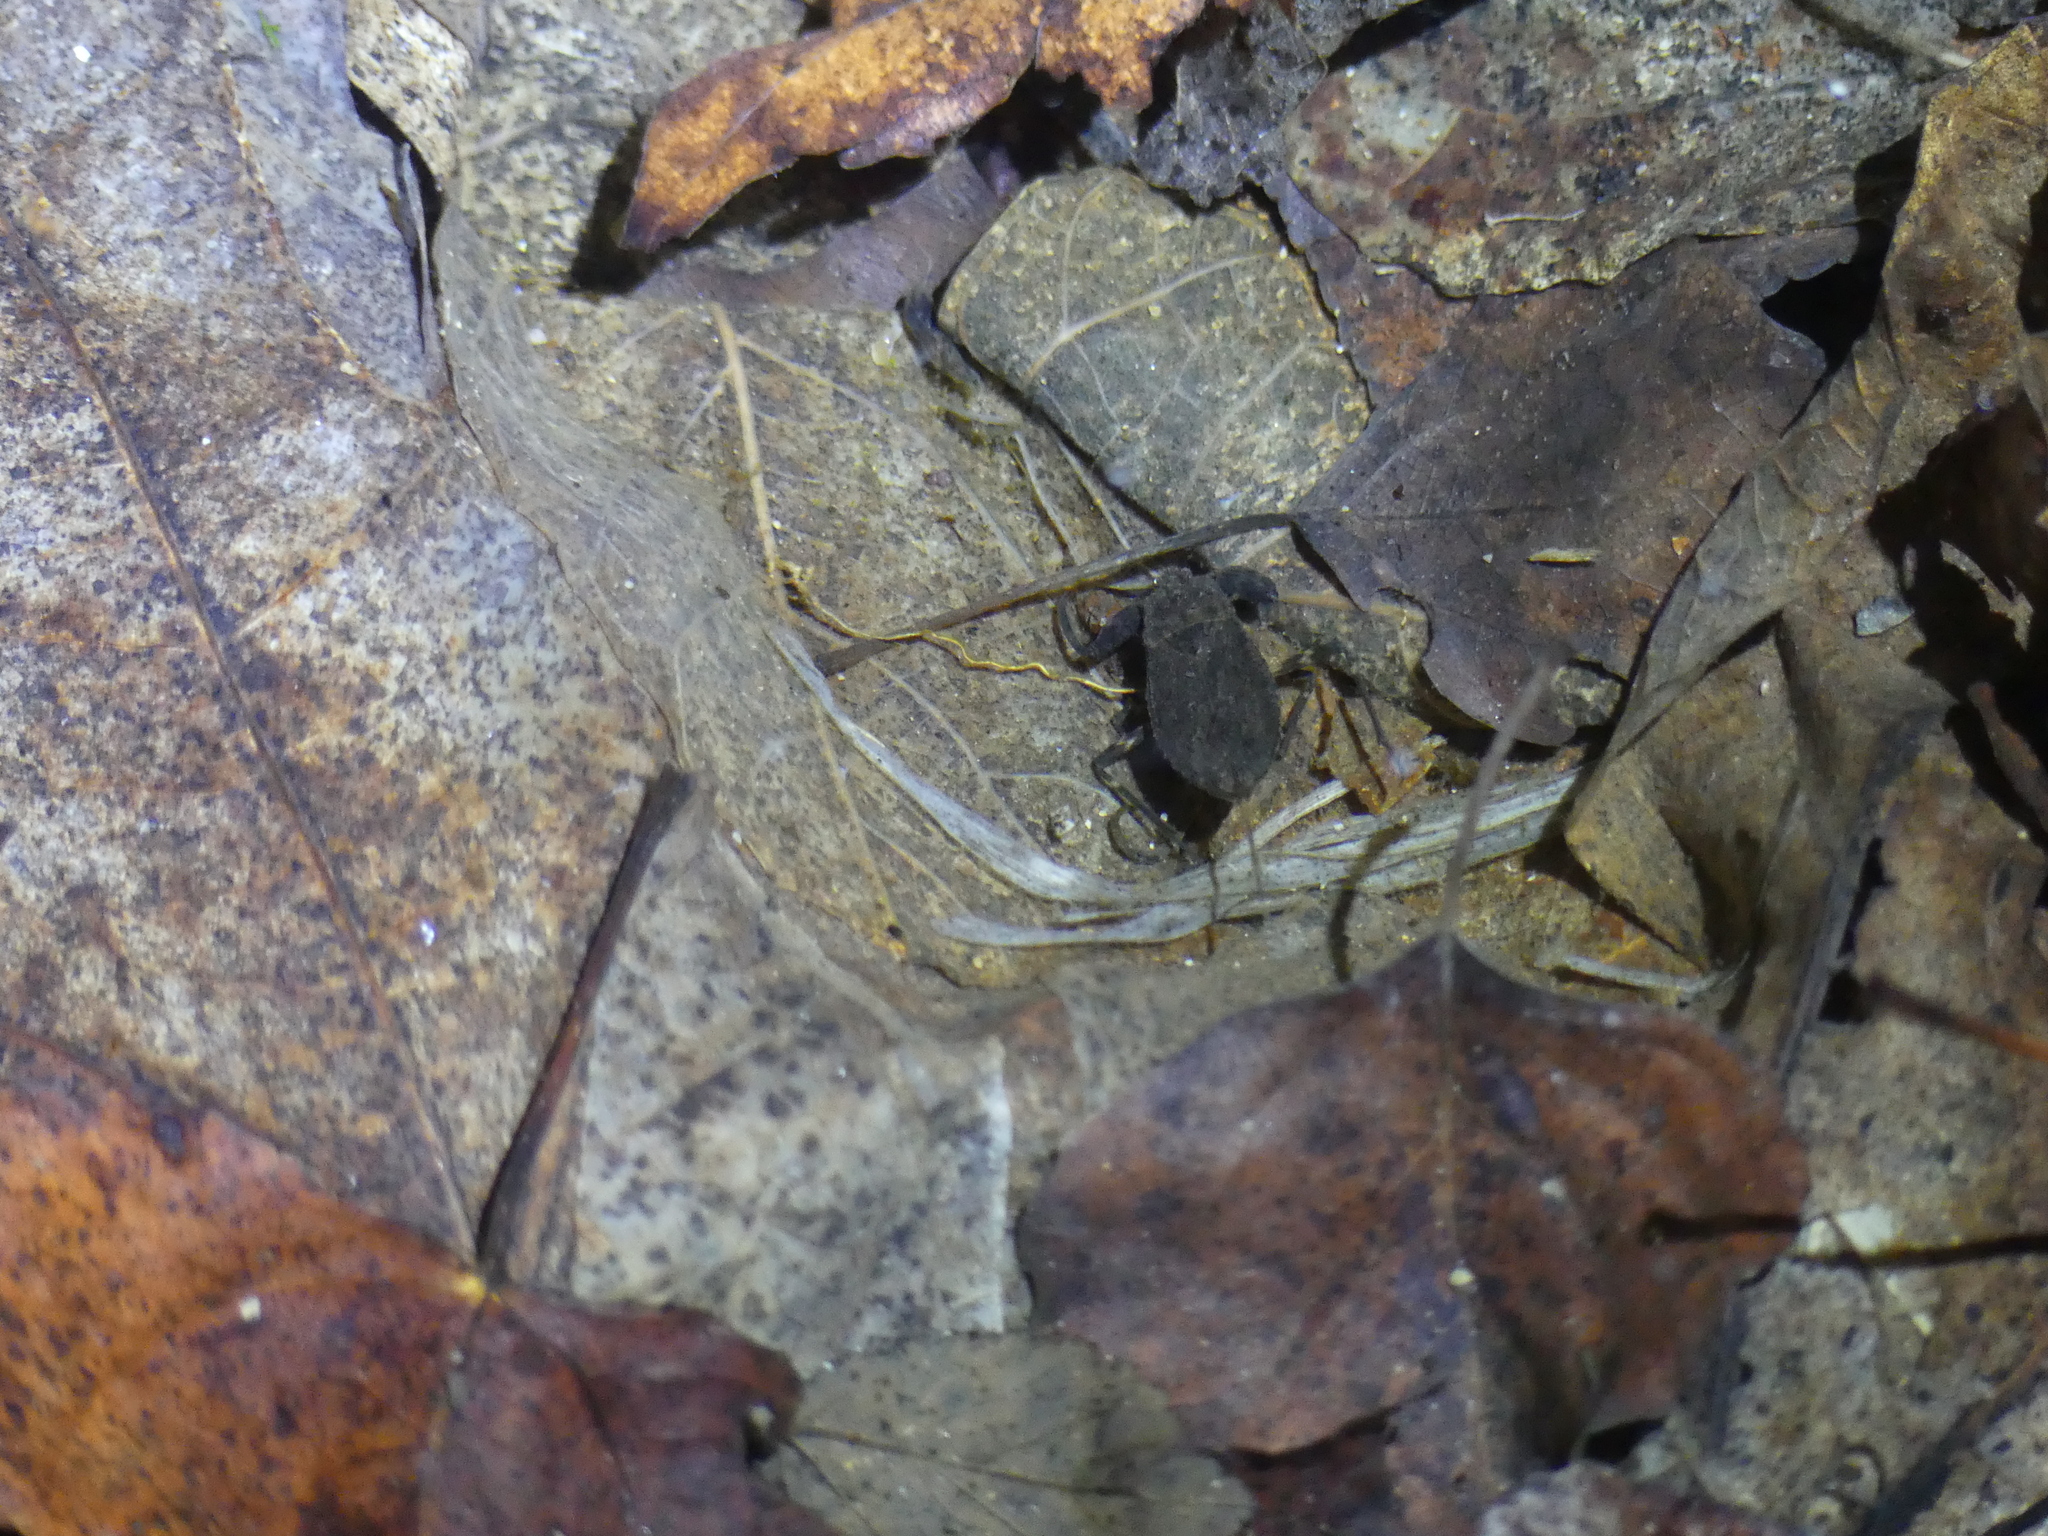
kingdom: Animalia
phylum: Arthropoda
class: Insecta
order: Hemiptera
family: Nepidae
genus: Nepa
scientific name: Nepa cinerea
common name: Water scorpion
